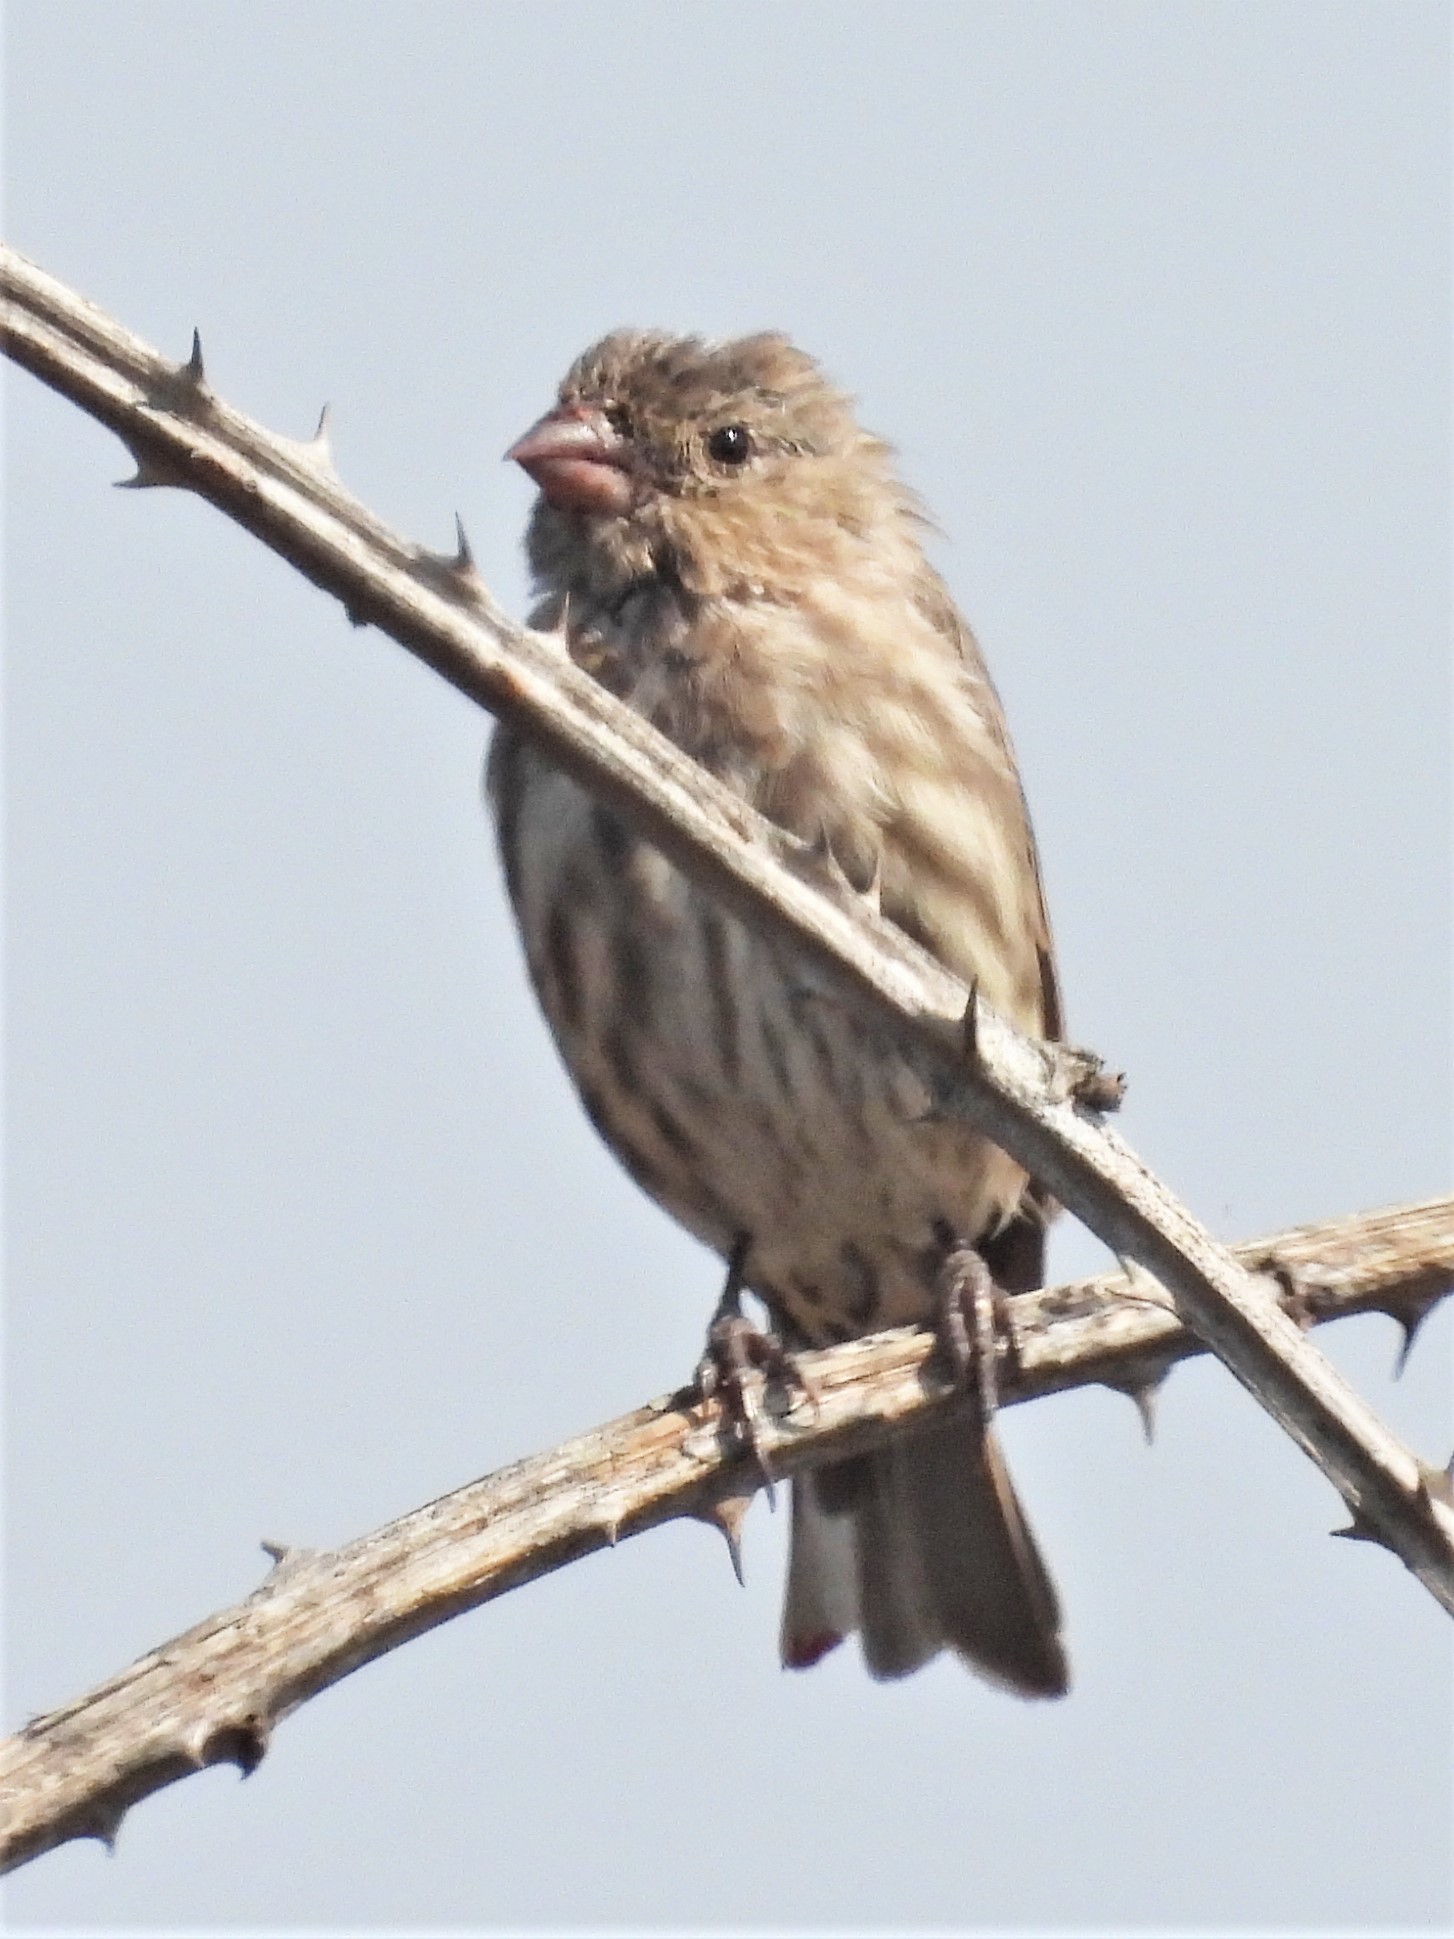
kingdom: Animalia
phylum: Chordata
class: Aves
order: Passeriformes
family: Fringillidae
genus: Haemorhous
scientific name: Haemorhous mexicanus
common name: House finch
